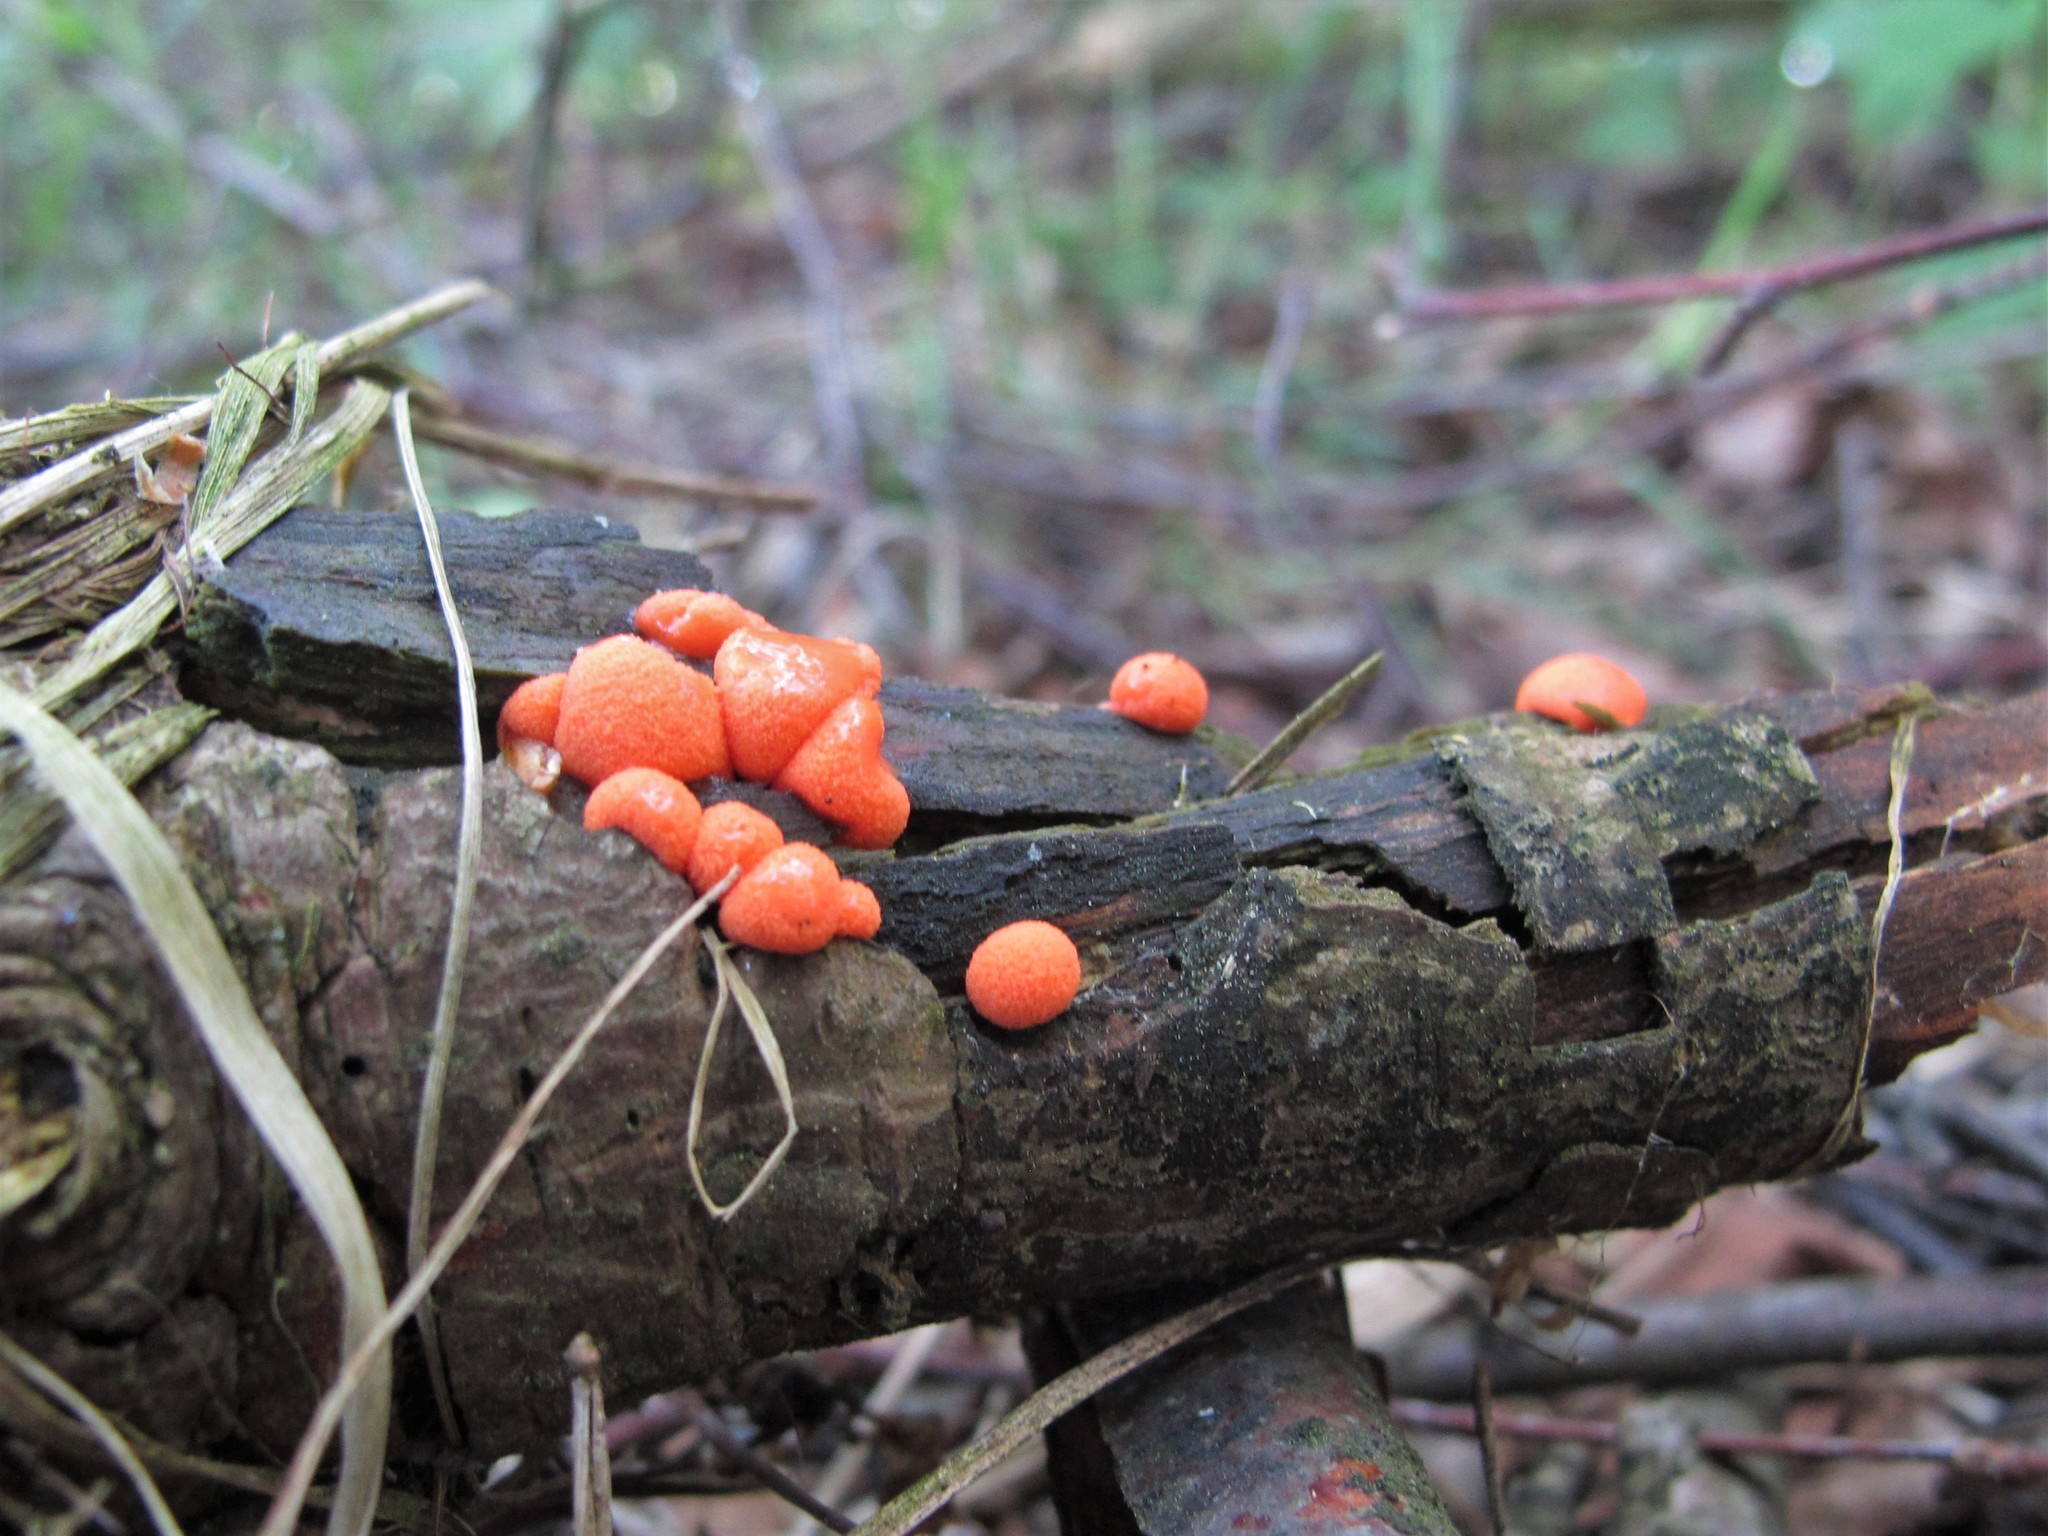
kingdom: Protozoa
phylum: Mycetozoa
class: Myxomycetes
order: Cribrariales
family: Tubiferaceae
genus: Lycogala
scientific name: Lycogala epidendrum
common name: Wolf's milk
